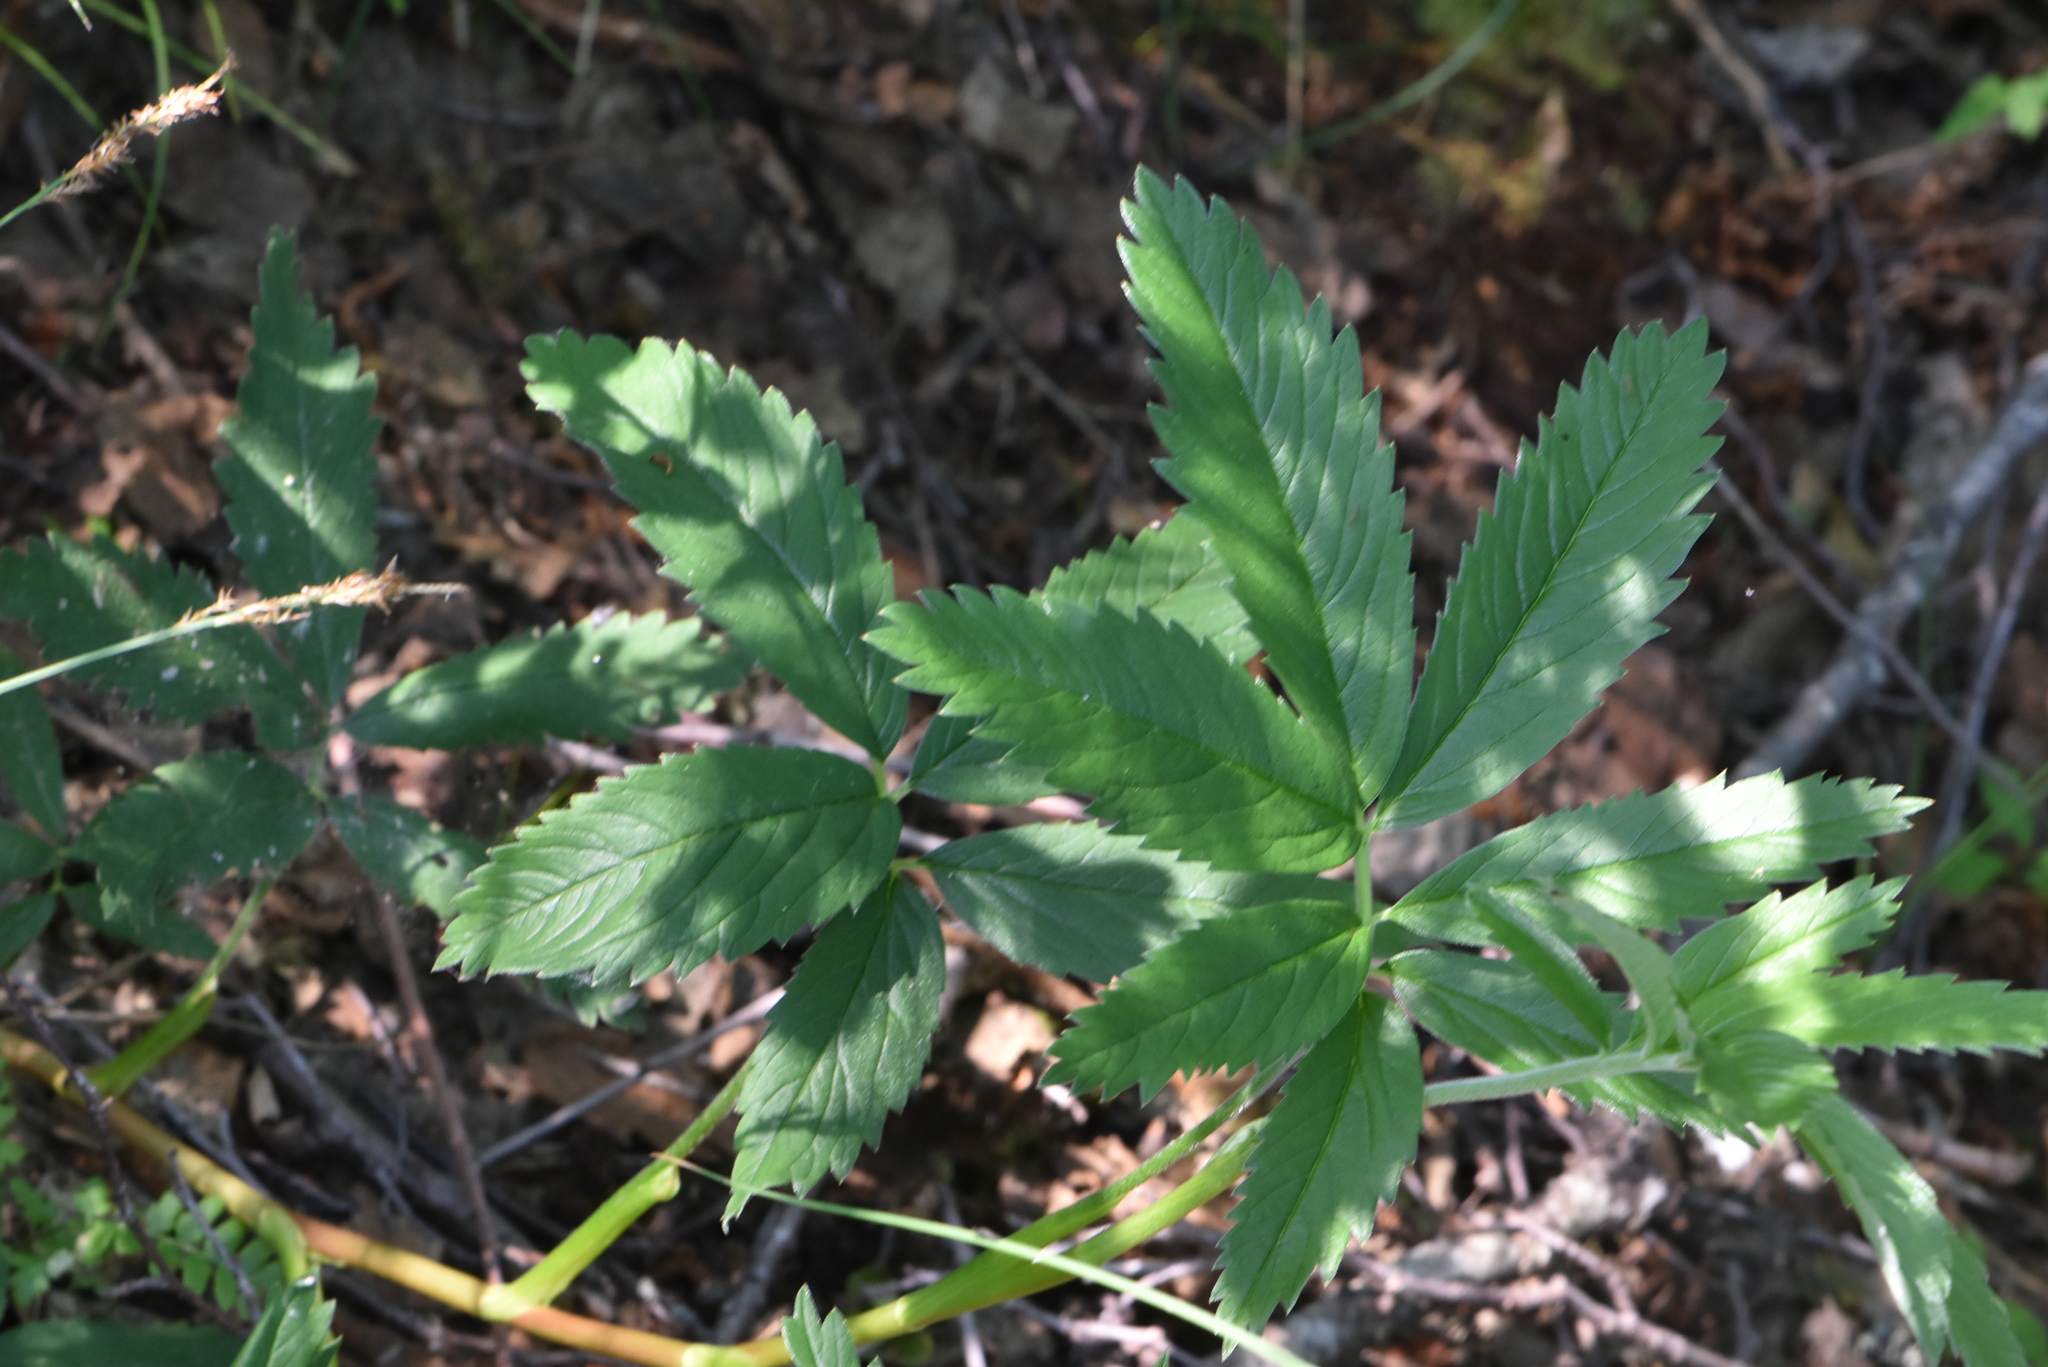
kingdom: Plantae
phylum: Tracheophyta
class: Magnoliopsida
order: Rosales
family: Rosaceae
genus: Comarum
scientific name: Comarum palustre
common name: Marsh cinquefoil
